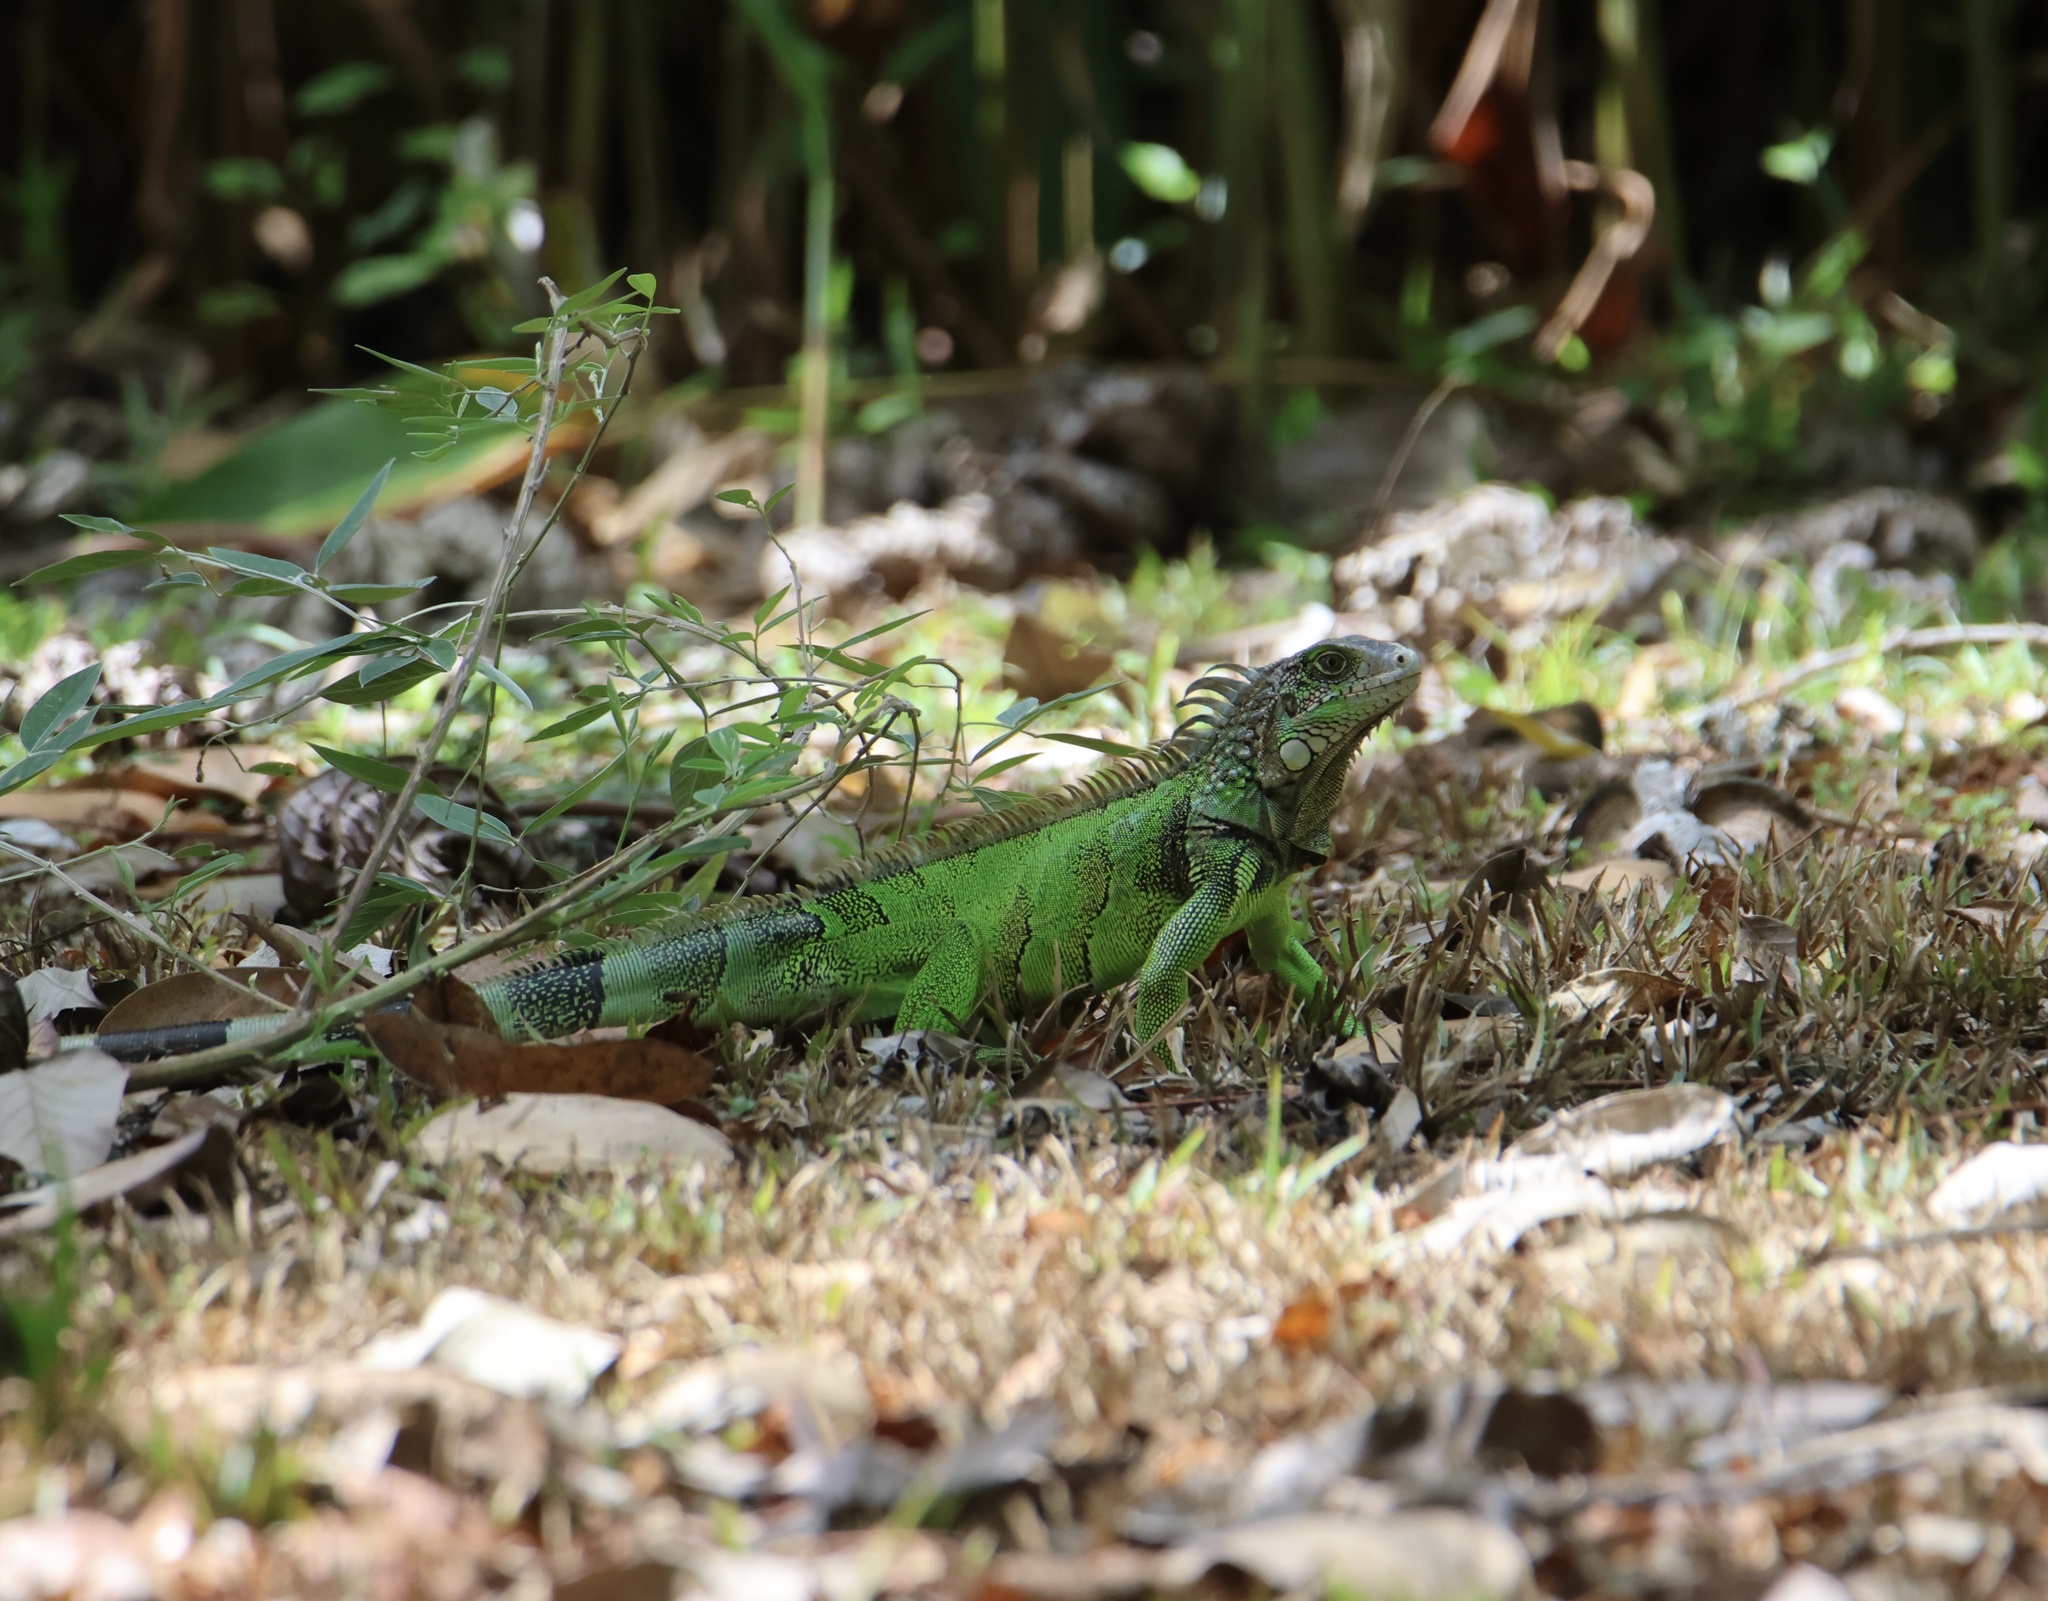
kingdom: Animalia
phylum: Chordata
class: Squamata
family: Iguanidae
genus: Iguana
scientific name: Iguana iguana
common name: Green iguana
